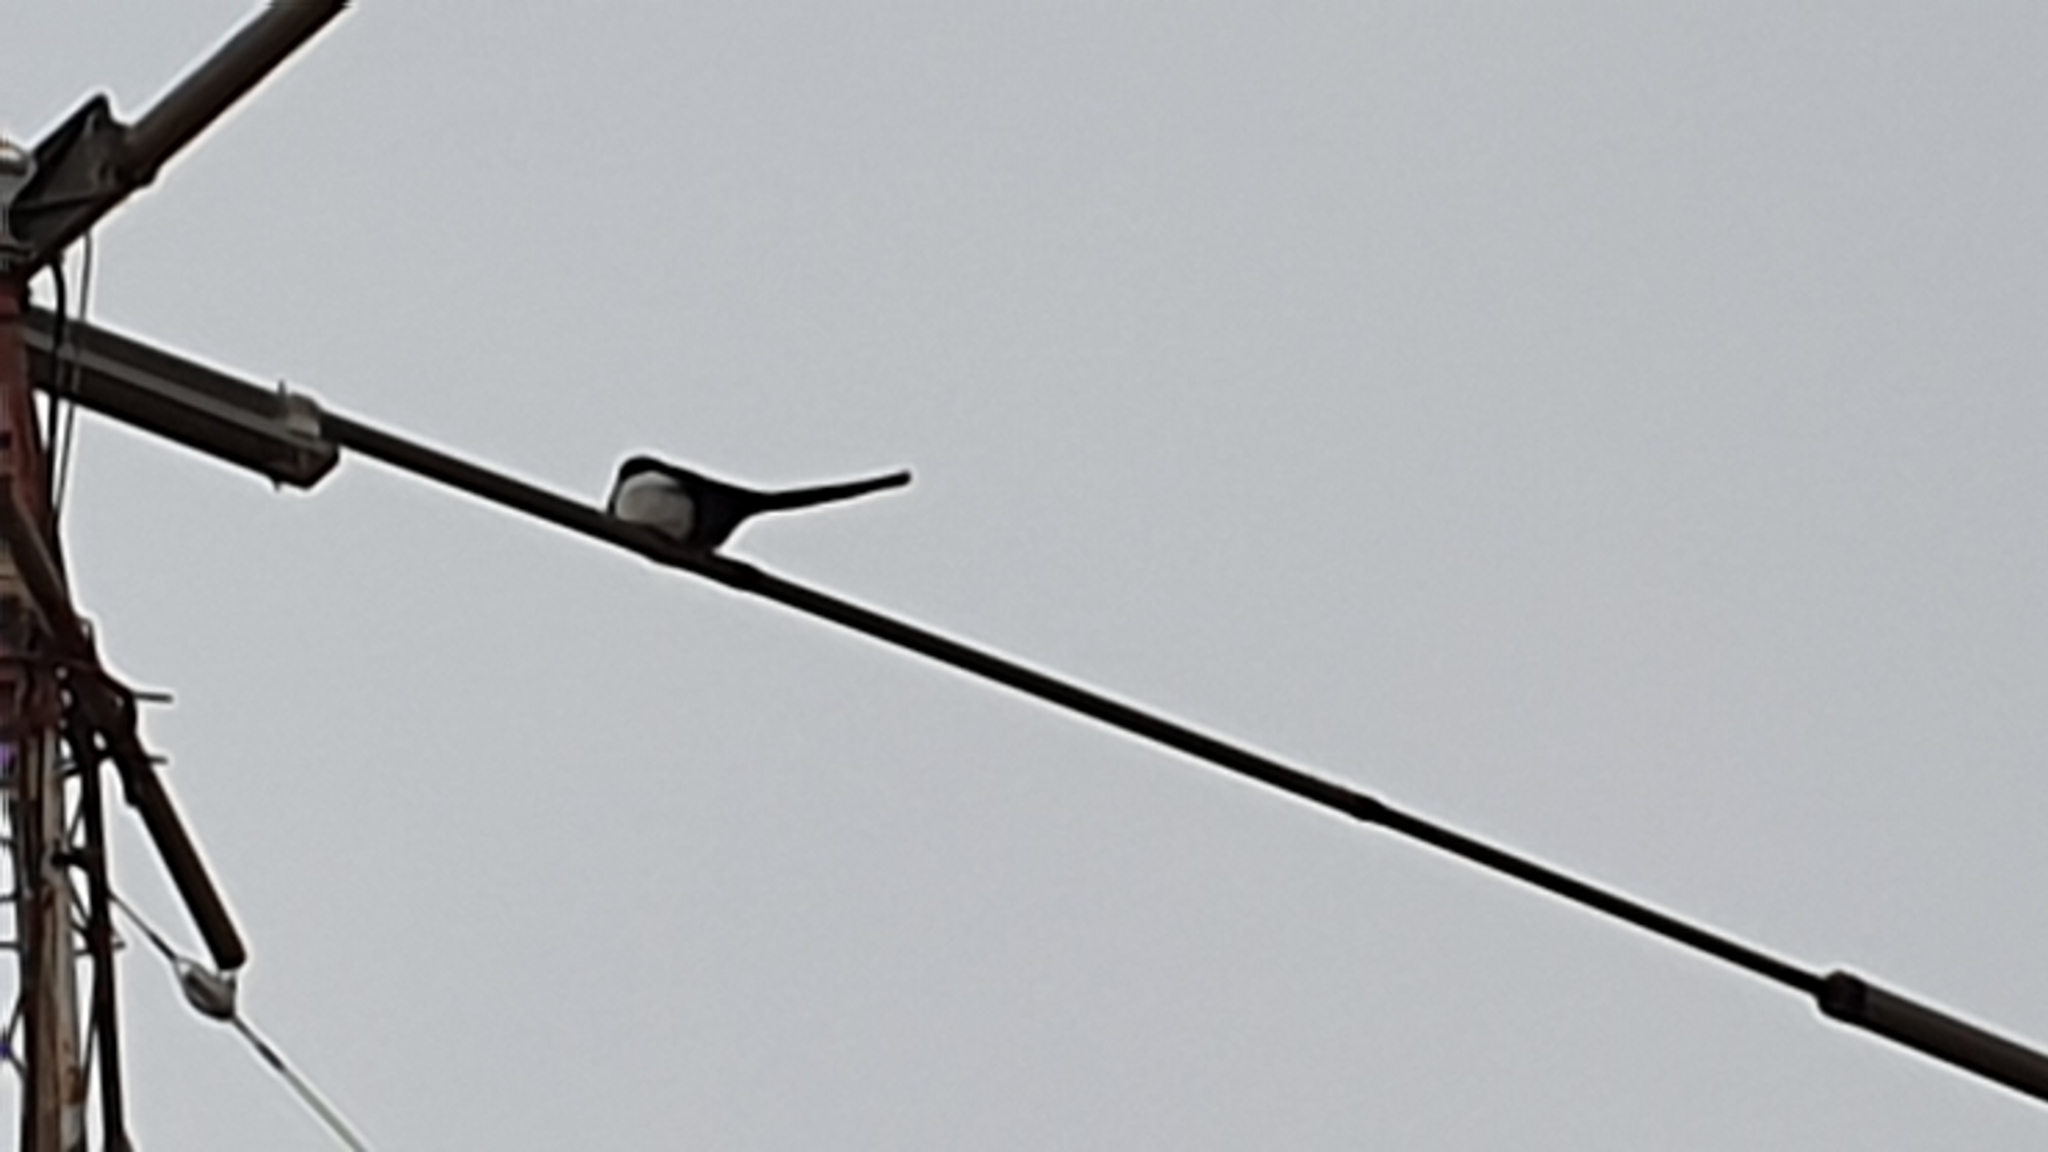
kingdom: Animalia
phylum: Chordata
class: Aves
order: Passeriformes
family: Corvidae
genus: Pica
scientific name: Pica pica
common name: Eurasian magpie
